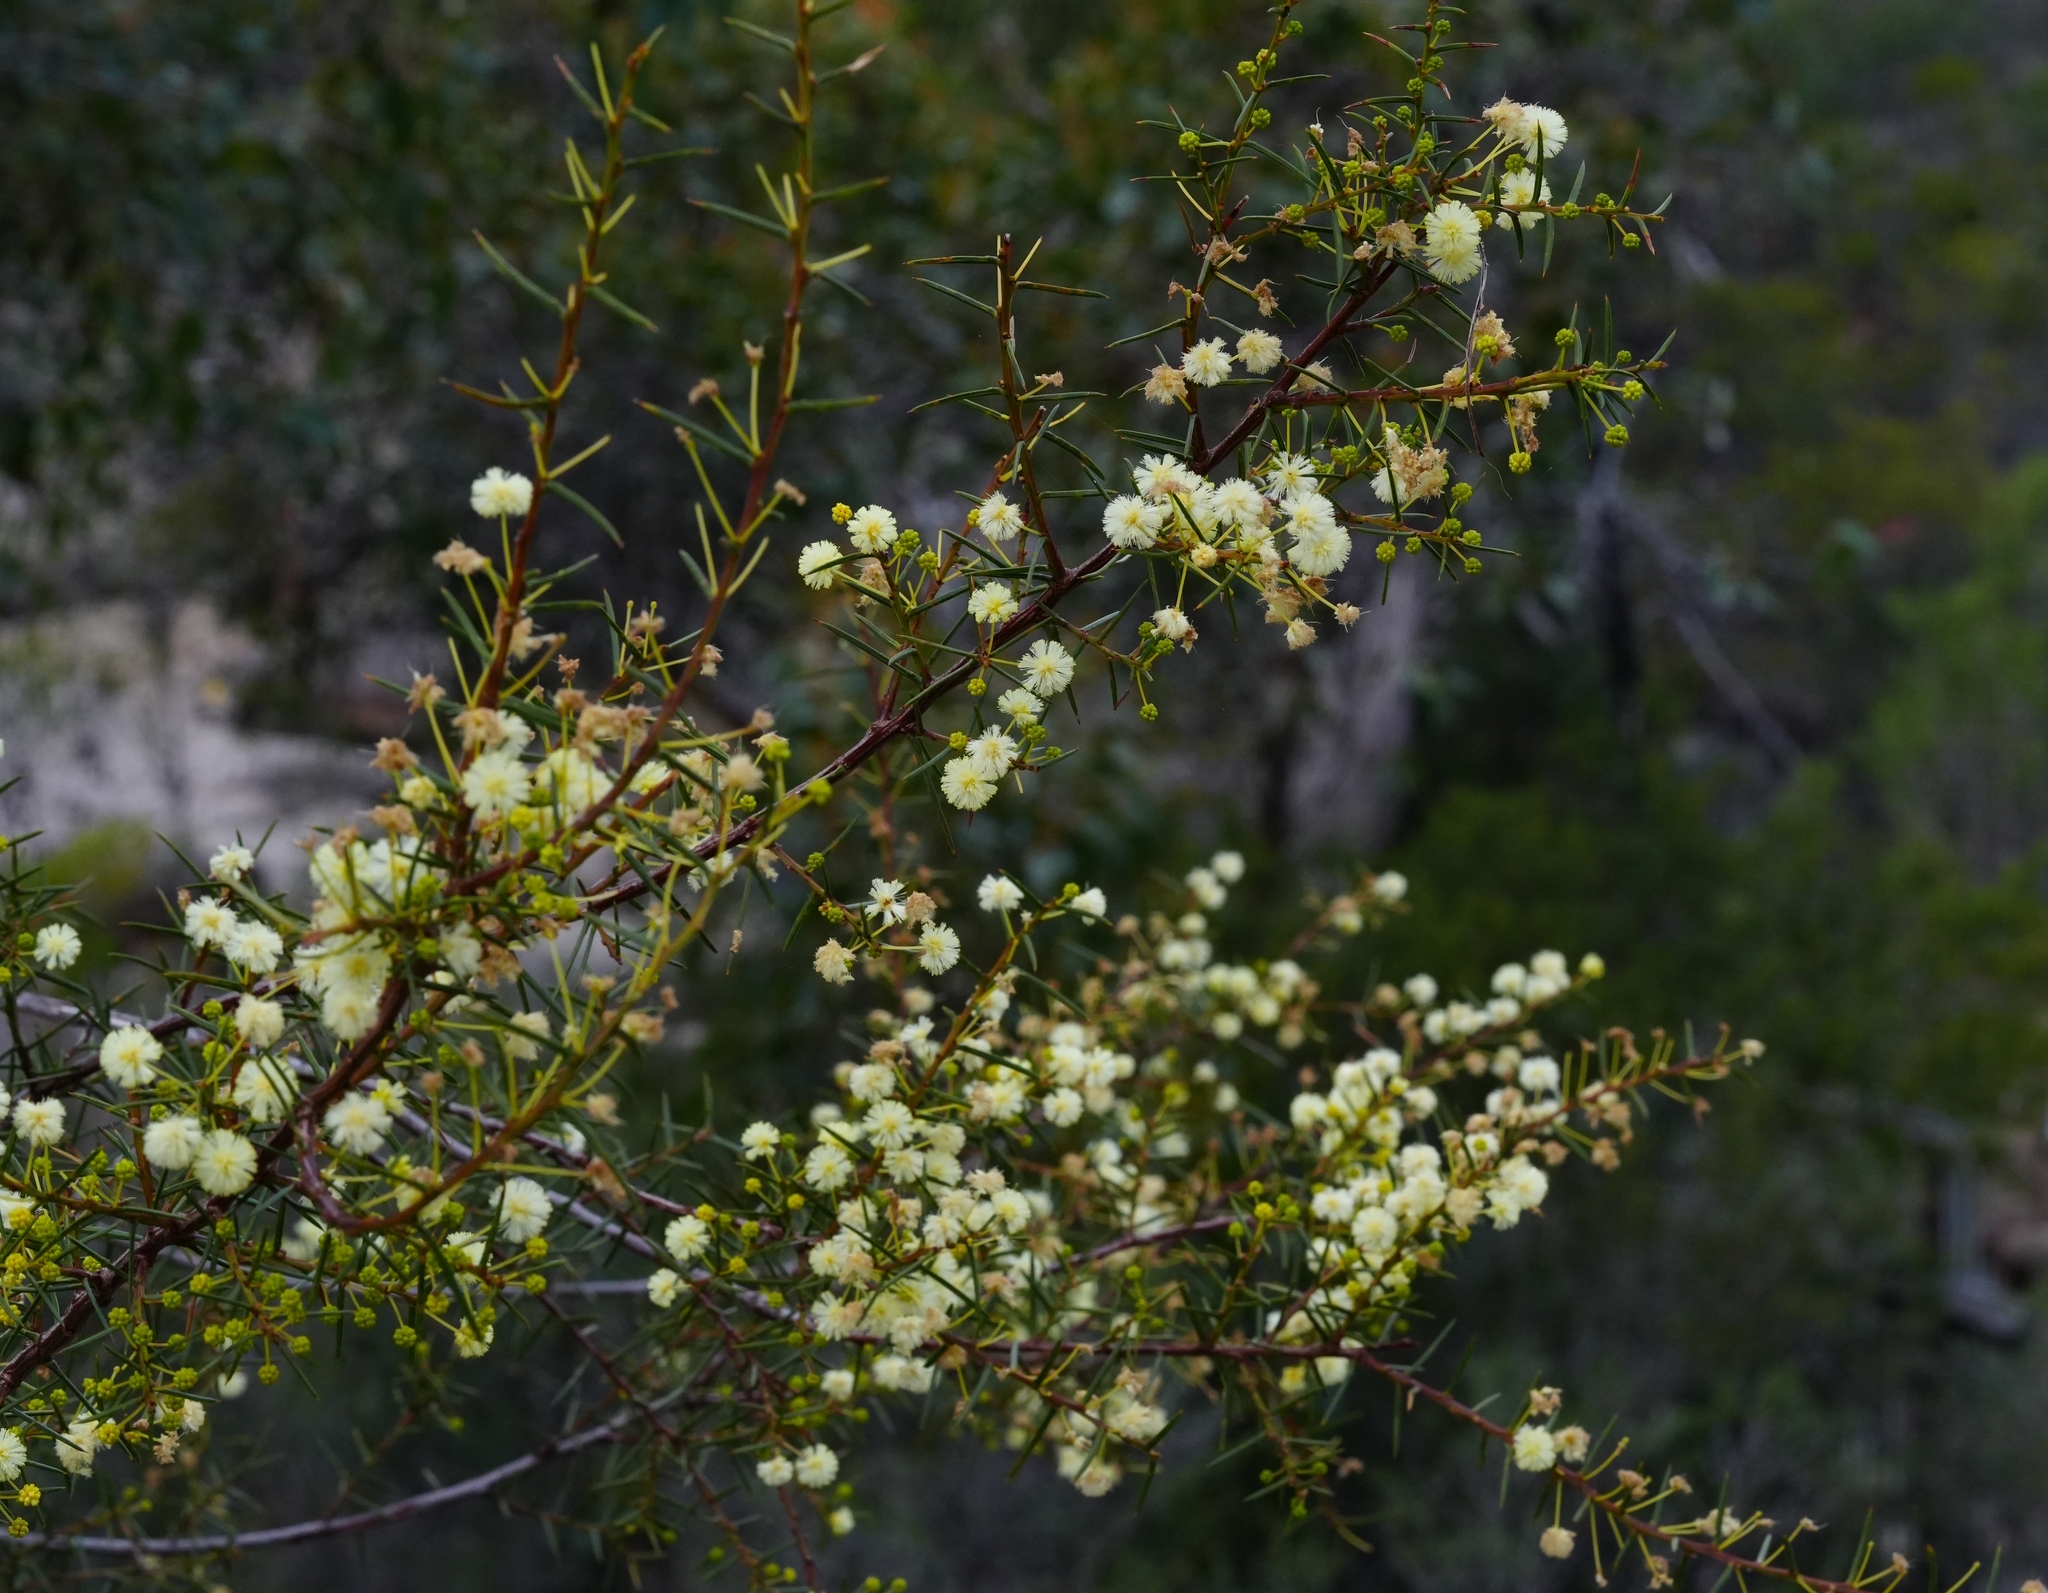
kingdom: Plantae
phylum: Tracheophyta
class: Magnoliopsida
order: Fabales
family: Fabaceae
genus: Acacia
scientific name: Acacia genistifolia
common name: Early wattle
